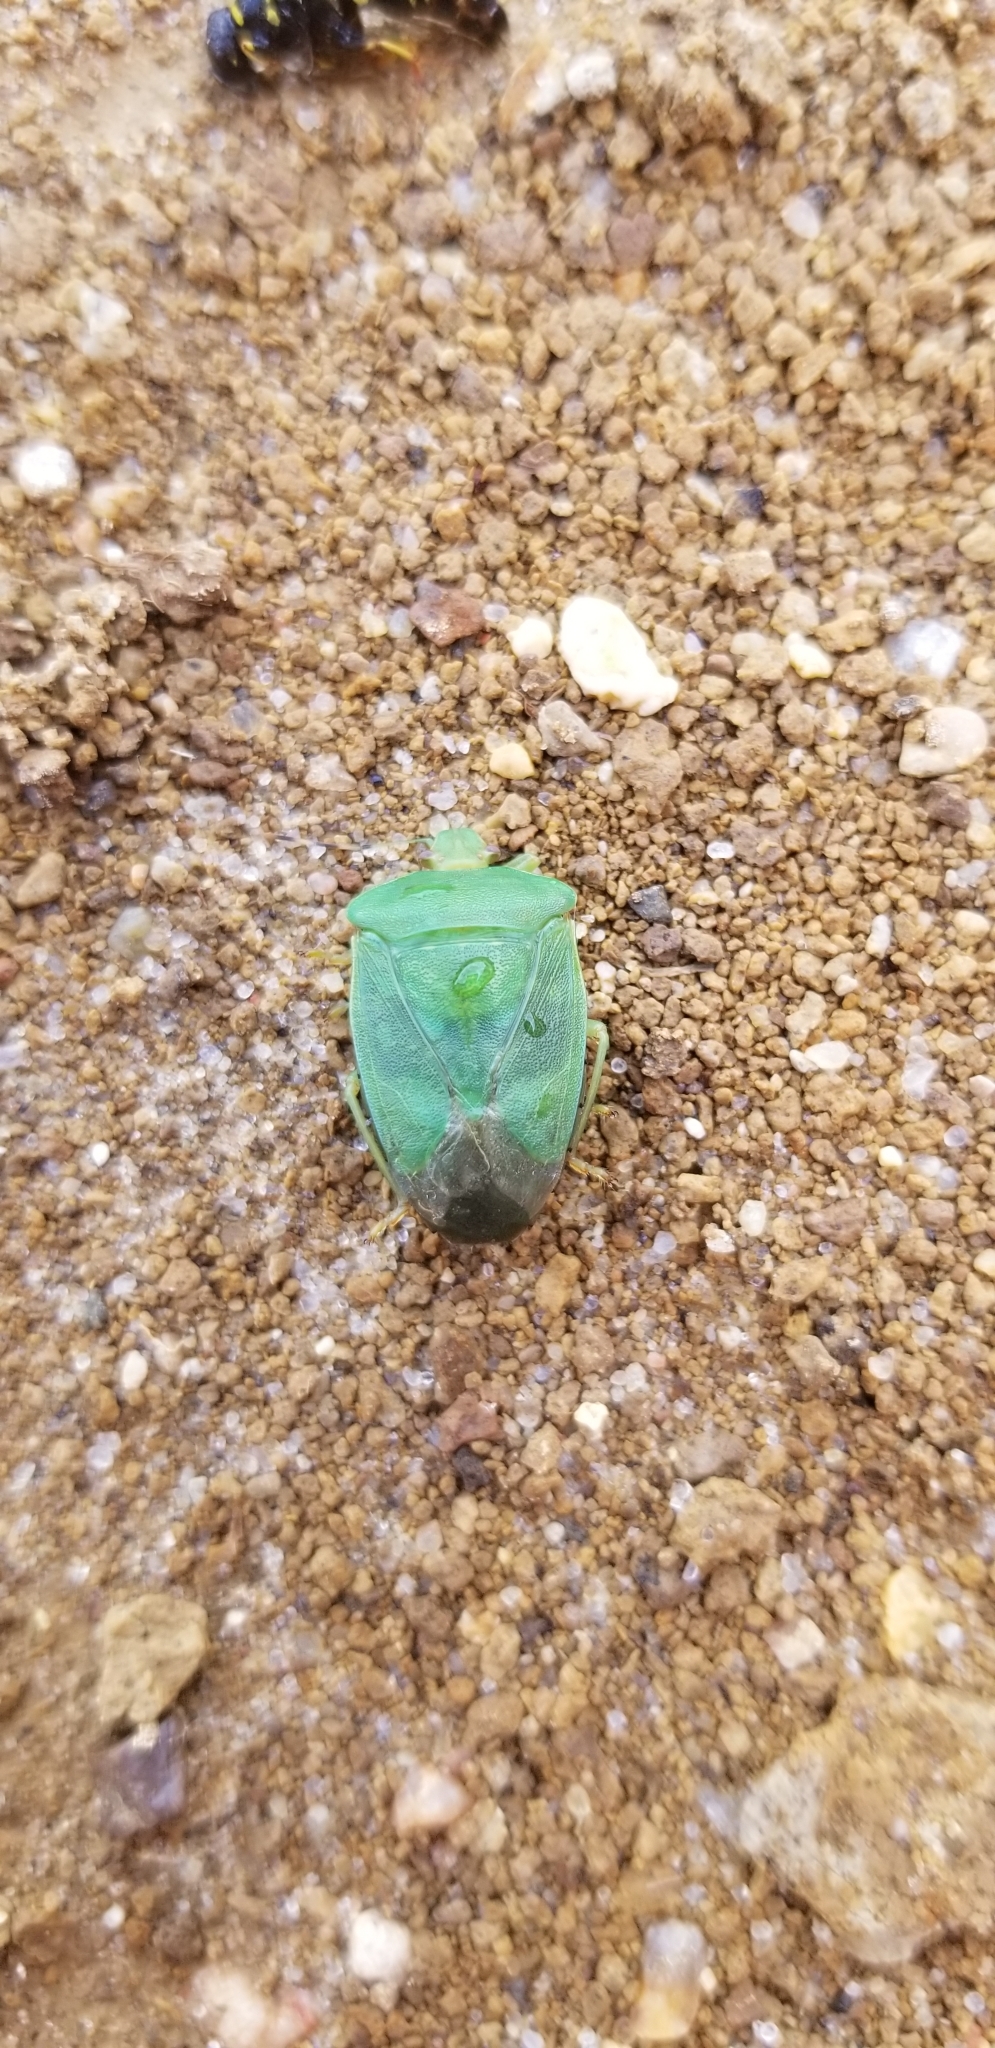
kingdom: Animalia
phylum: Arthropoda
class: Insecta
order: Hemiptera
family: Pentatomidae
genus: Chinavia
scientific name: Chinavia hilaris
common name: Green stink bug
